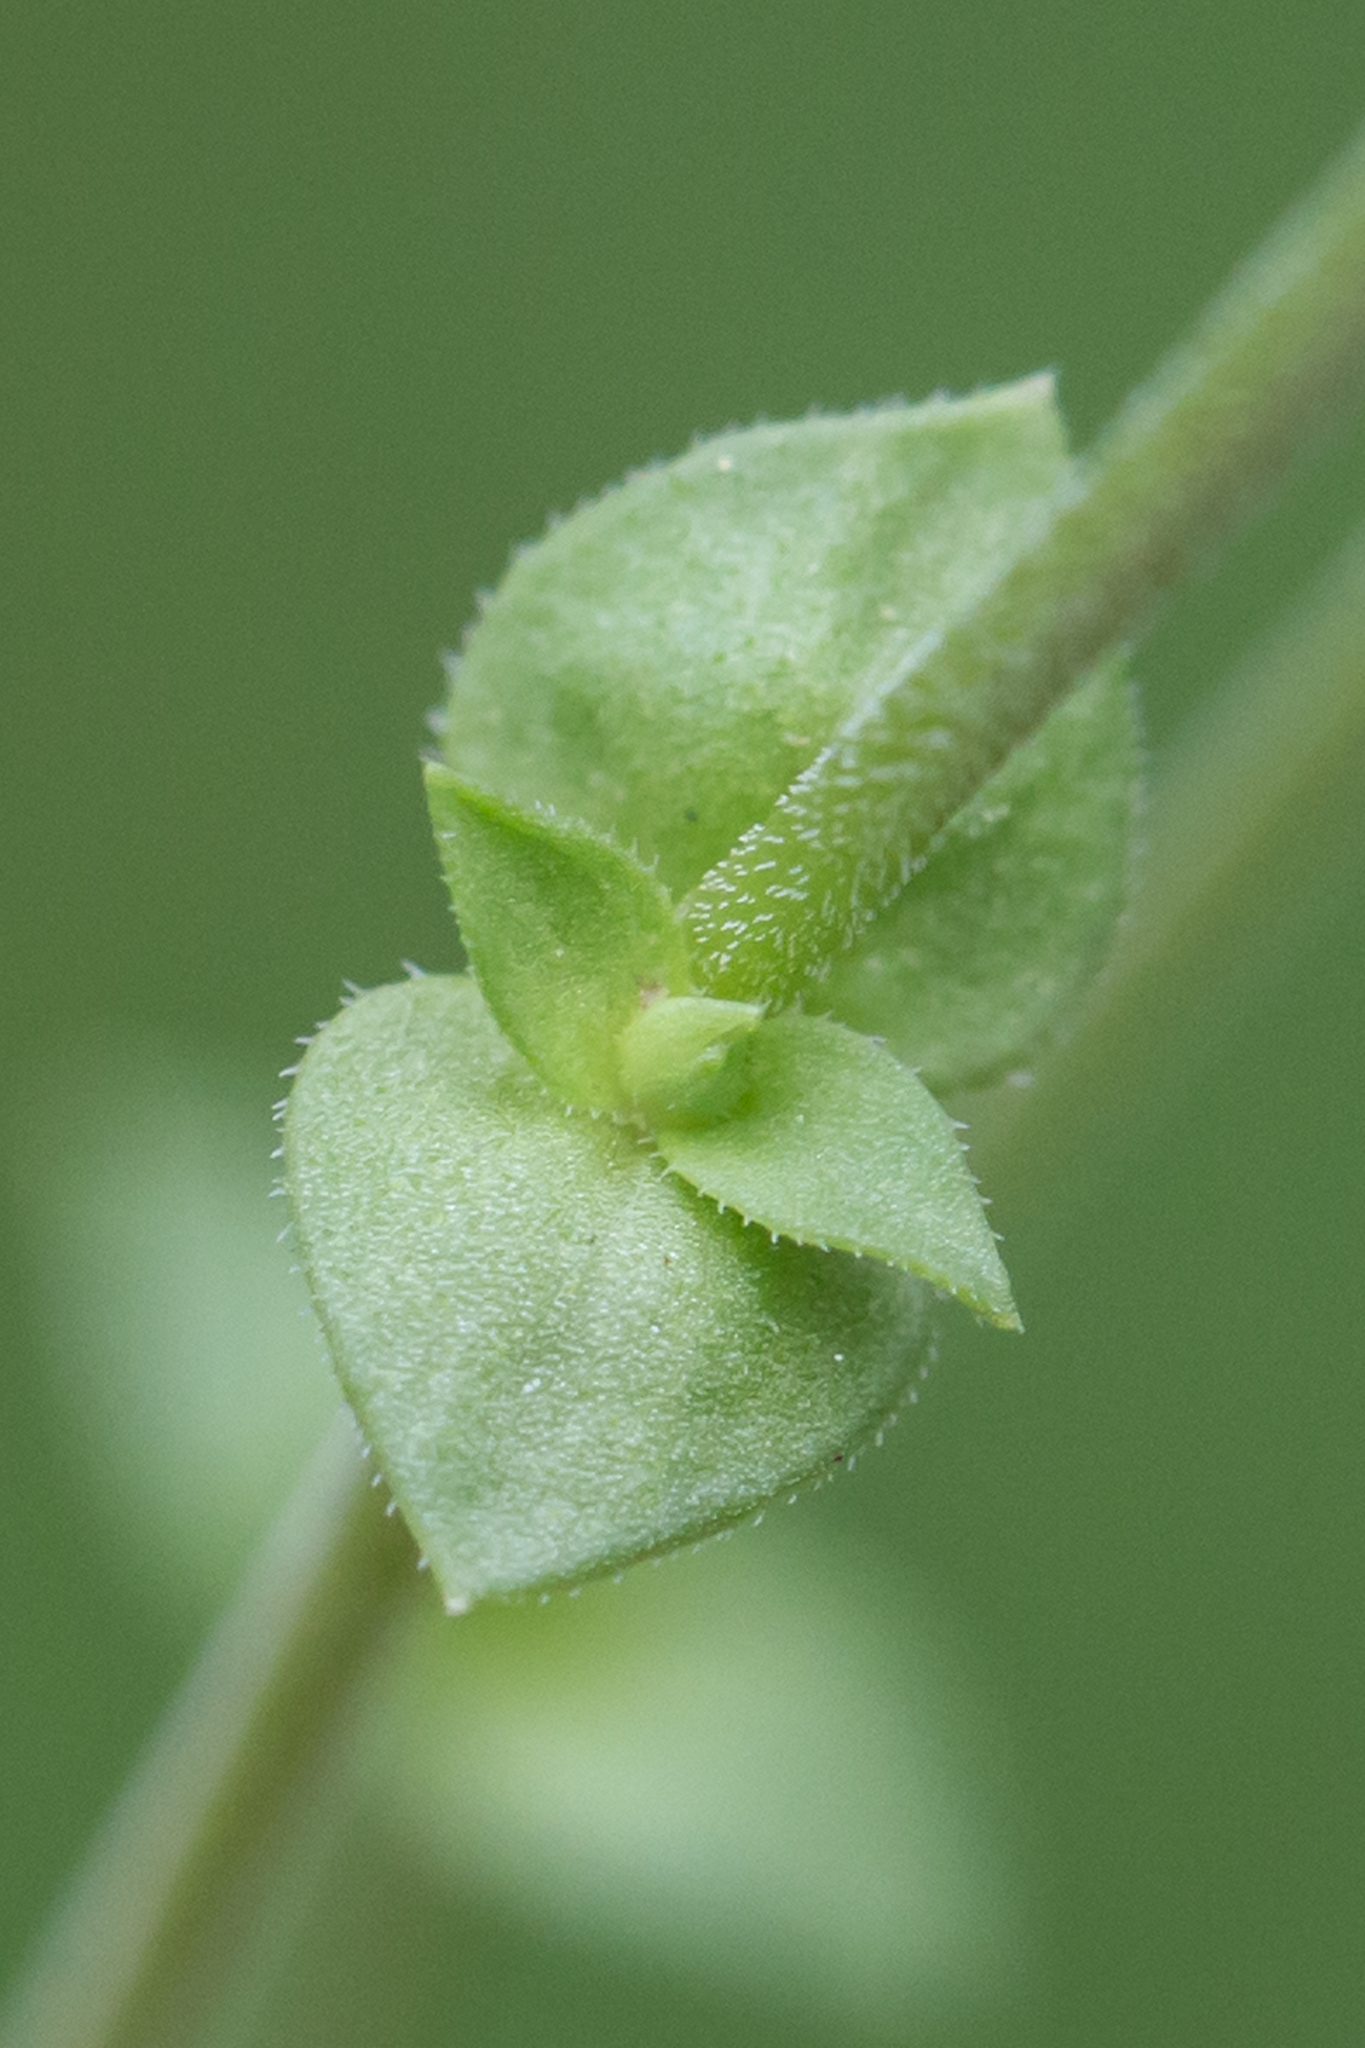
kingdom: Plantae
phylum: Tracheophyta
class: Magnoliopsida
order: Caryophyllales
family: Caryophyllaceae
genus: Arenaria
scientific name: Arenaria serpyllifolia
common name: Thyme-leaved sandwort
